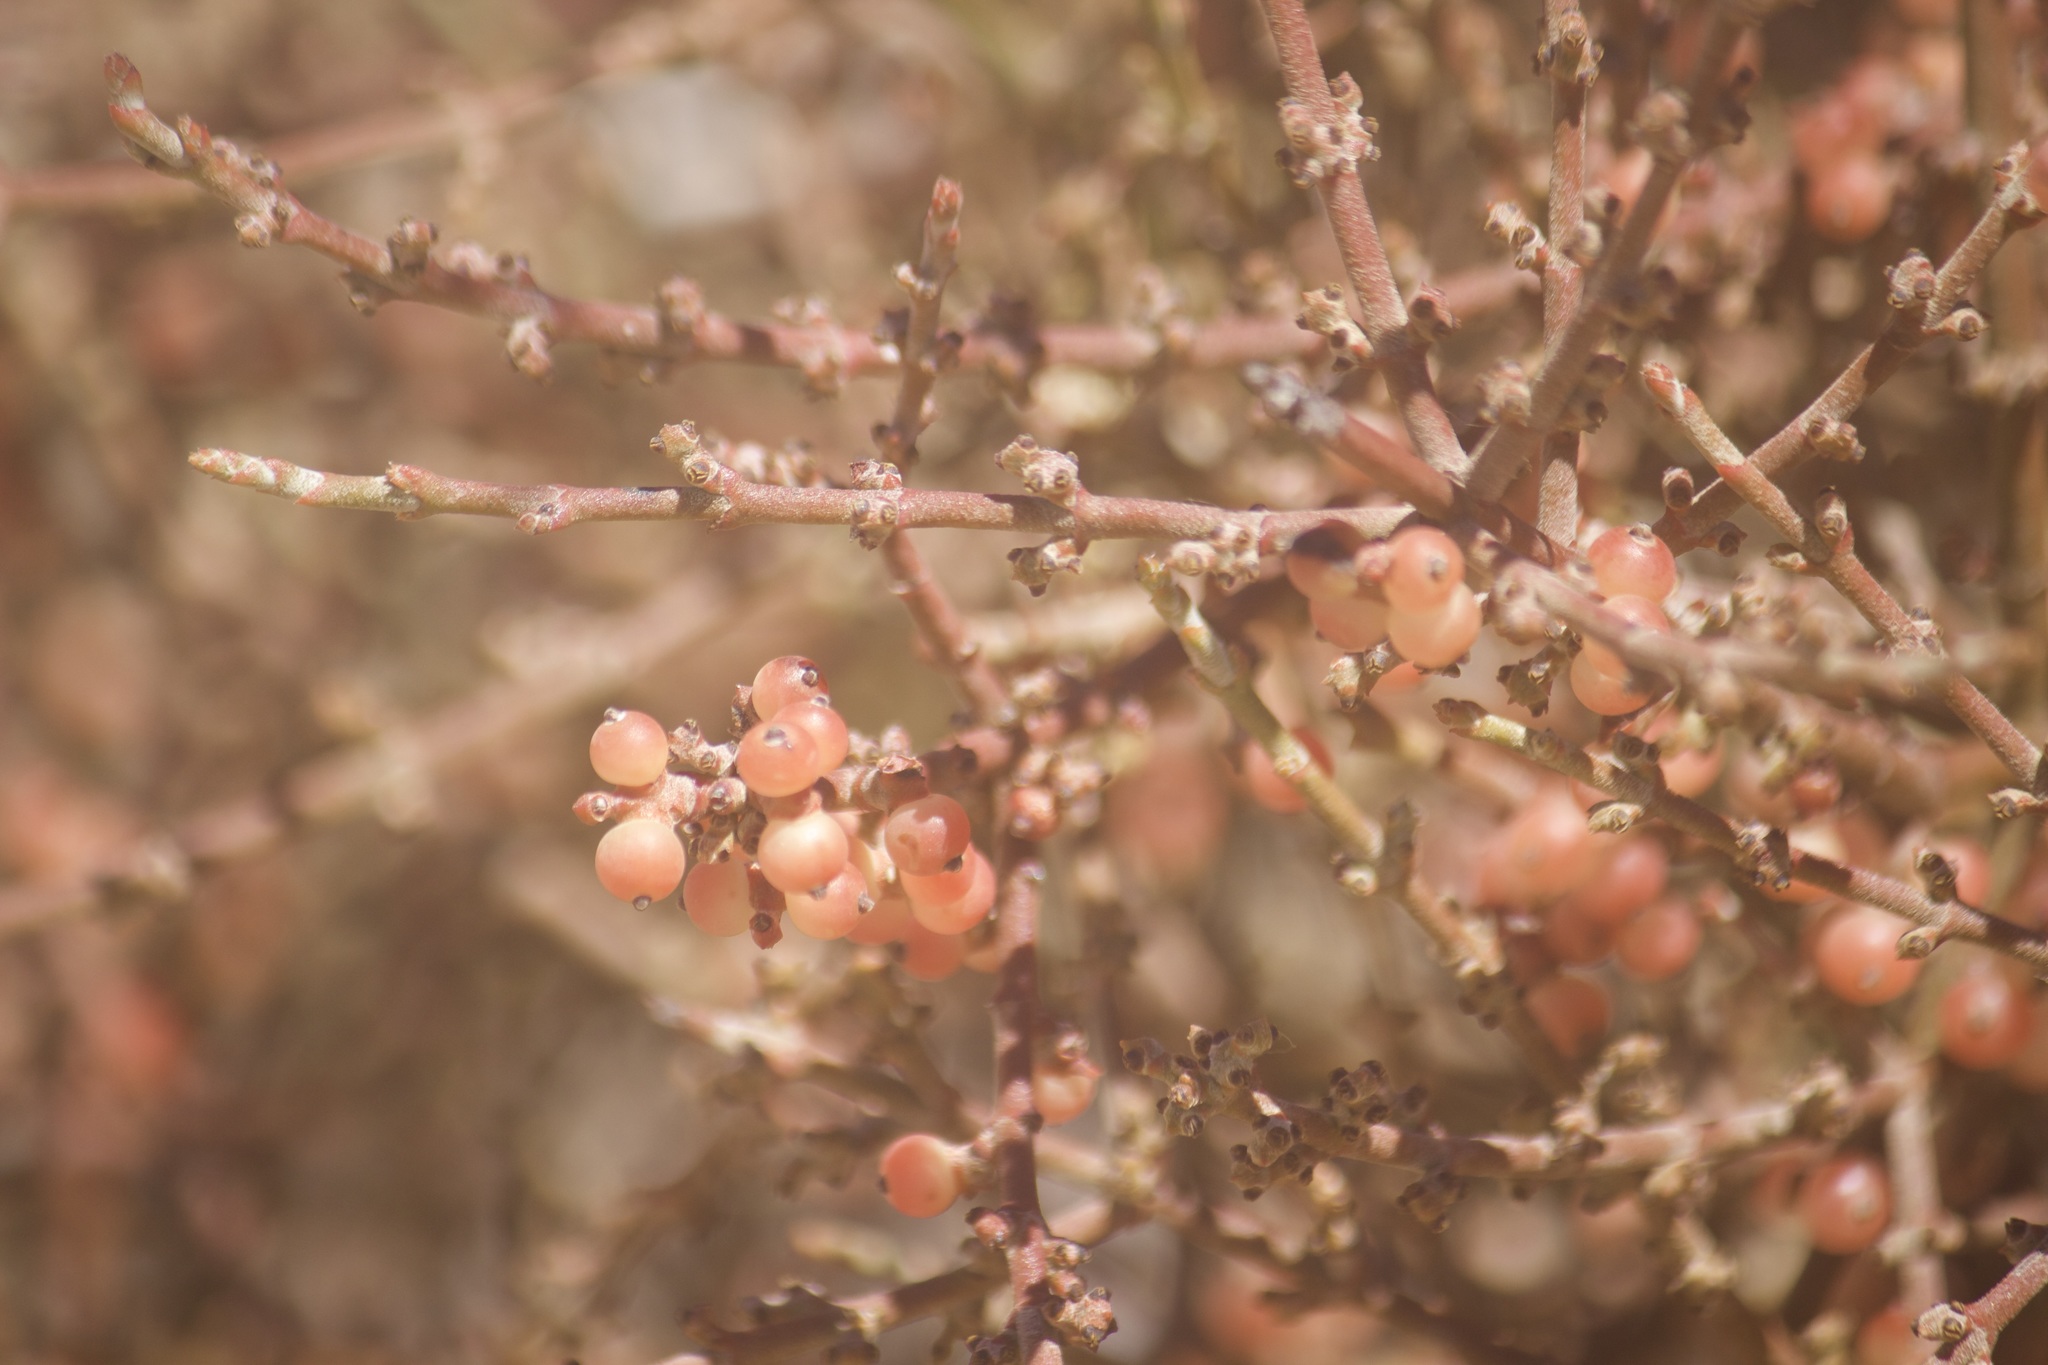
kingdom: Plantae
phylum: Tracheophyta
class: Magnoliopsida
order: Santalales
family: Viscaceae
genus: Phoradendron
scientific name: Phoradendron californicum
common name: Acacia mistletoe
